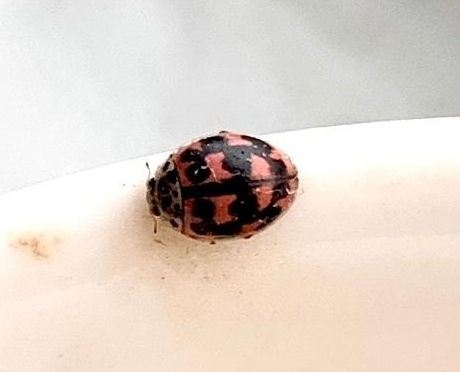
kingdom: Animalia
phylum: Arthropoda
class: Insecta
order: Coleoptera
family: Coccinellidae
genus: Oenopia
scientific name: Oenopia conglobata
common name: Ladybird beetle
